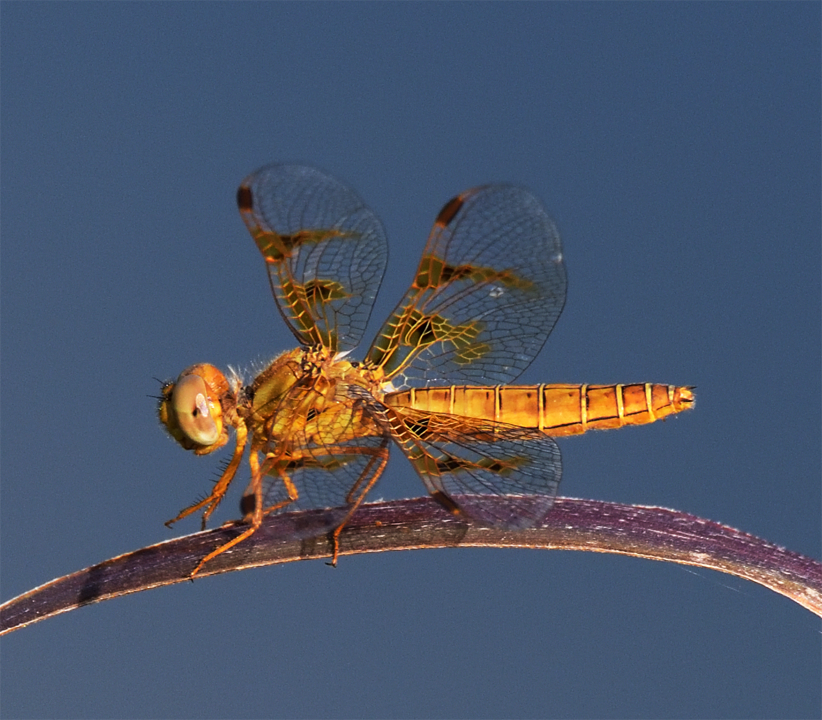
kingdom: Animalia
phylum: Arthropoda
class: Insecta
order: Odonata
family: Libellulidae
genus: Perithemis
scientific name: Perithemis intensa
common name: Mexican amberwing
